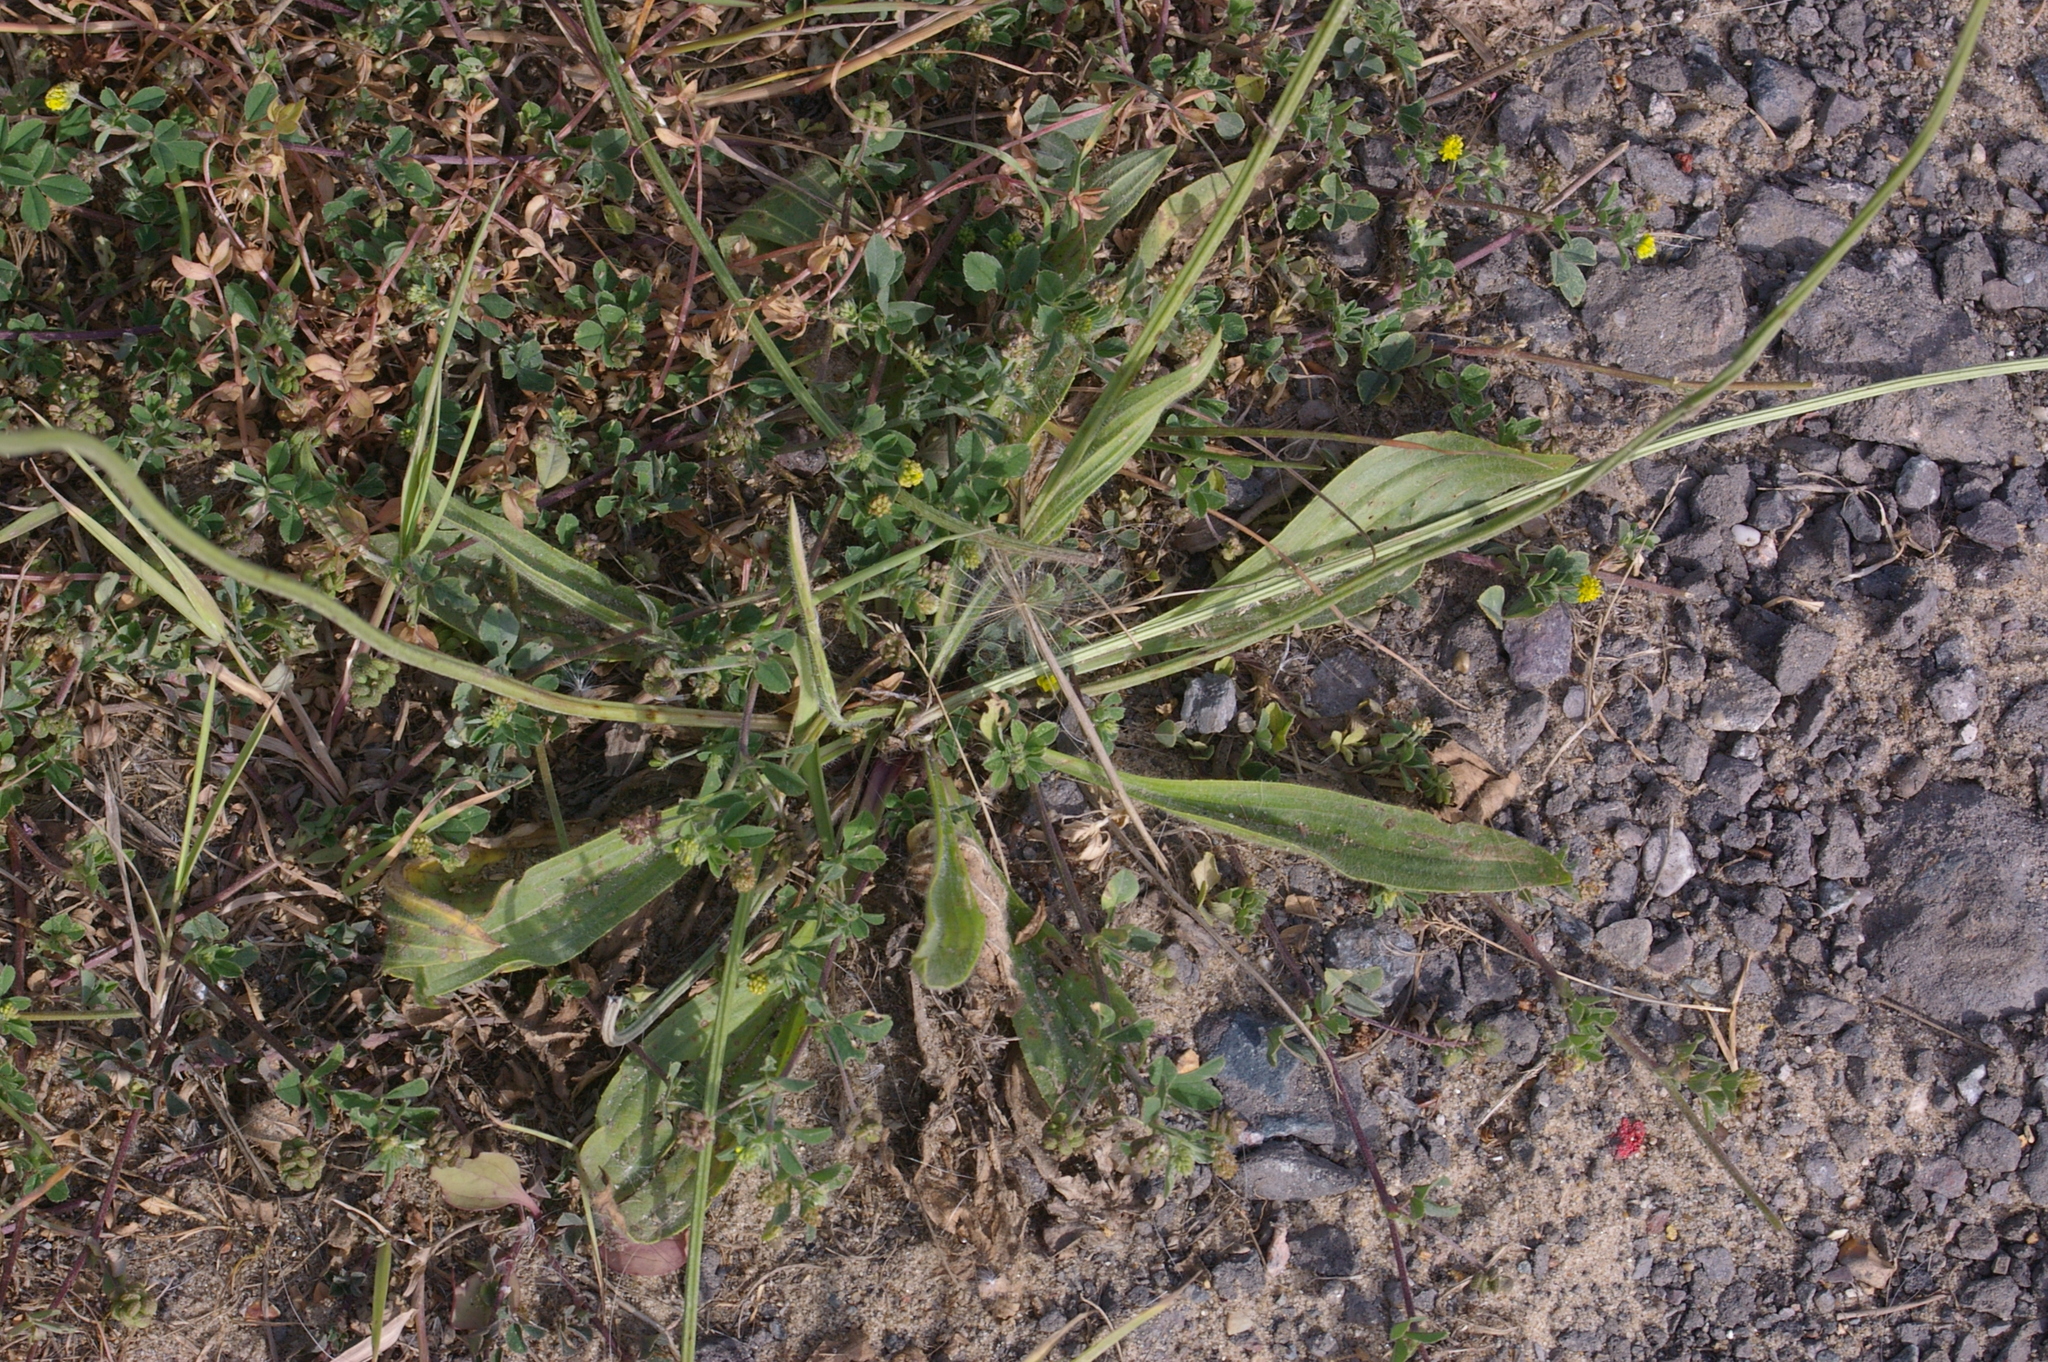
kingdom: Plantae
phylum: Tracheophyta
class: Magnoliopsida
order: Lamiales
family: Plantaginaceae
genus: Plantago
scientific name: Plantago lanceolata
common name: Ribwort plantain
